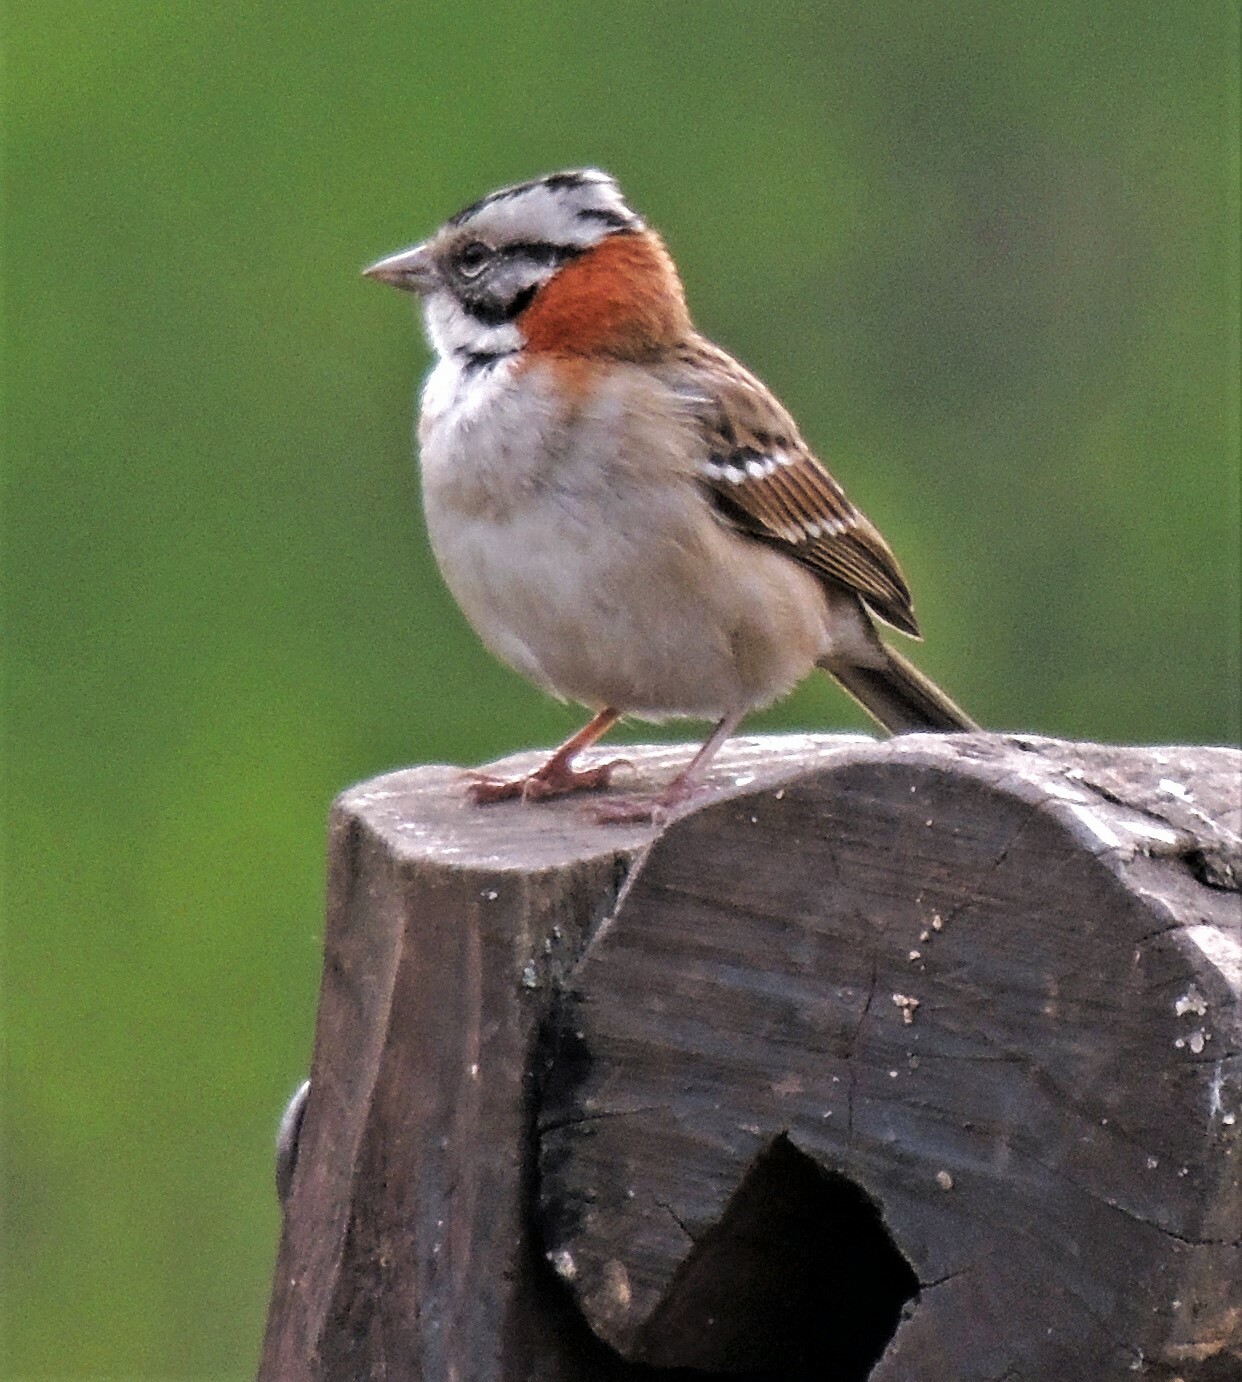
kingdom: Animalia
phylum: Chordata
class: Aves
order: Passeriformes
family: Passerellidae
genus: Zonotrichia
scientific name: Zonotrichia capensis
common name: Rufous-collared sparrow
